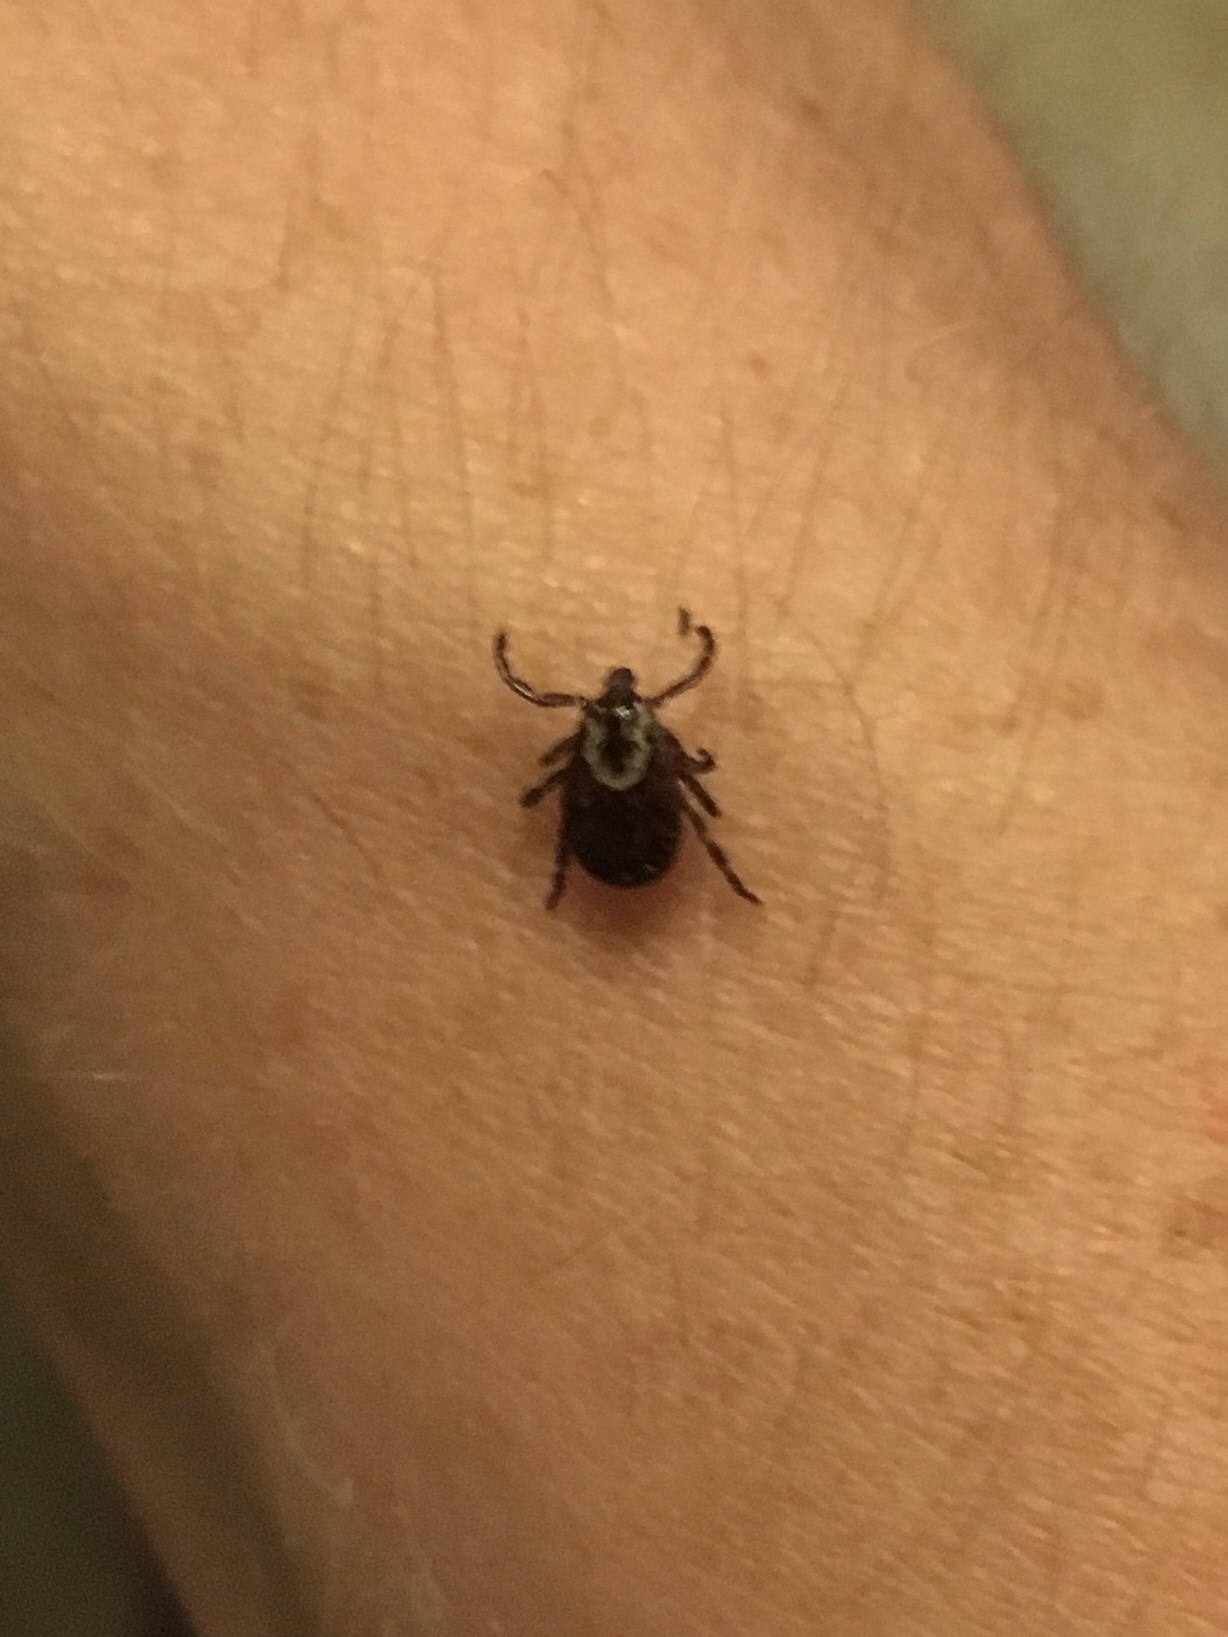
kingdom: Animalia
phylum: Arthropoda
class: Arachnida
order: Ixodida
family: Ixodidae
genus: Dermacentor
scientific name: Dermacentor variabilis
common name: American dog tick
